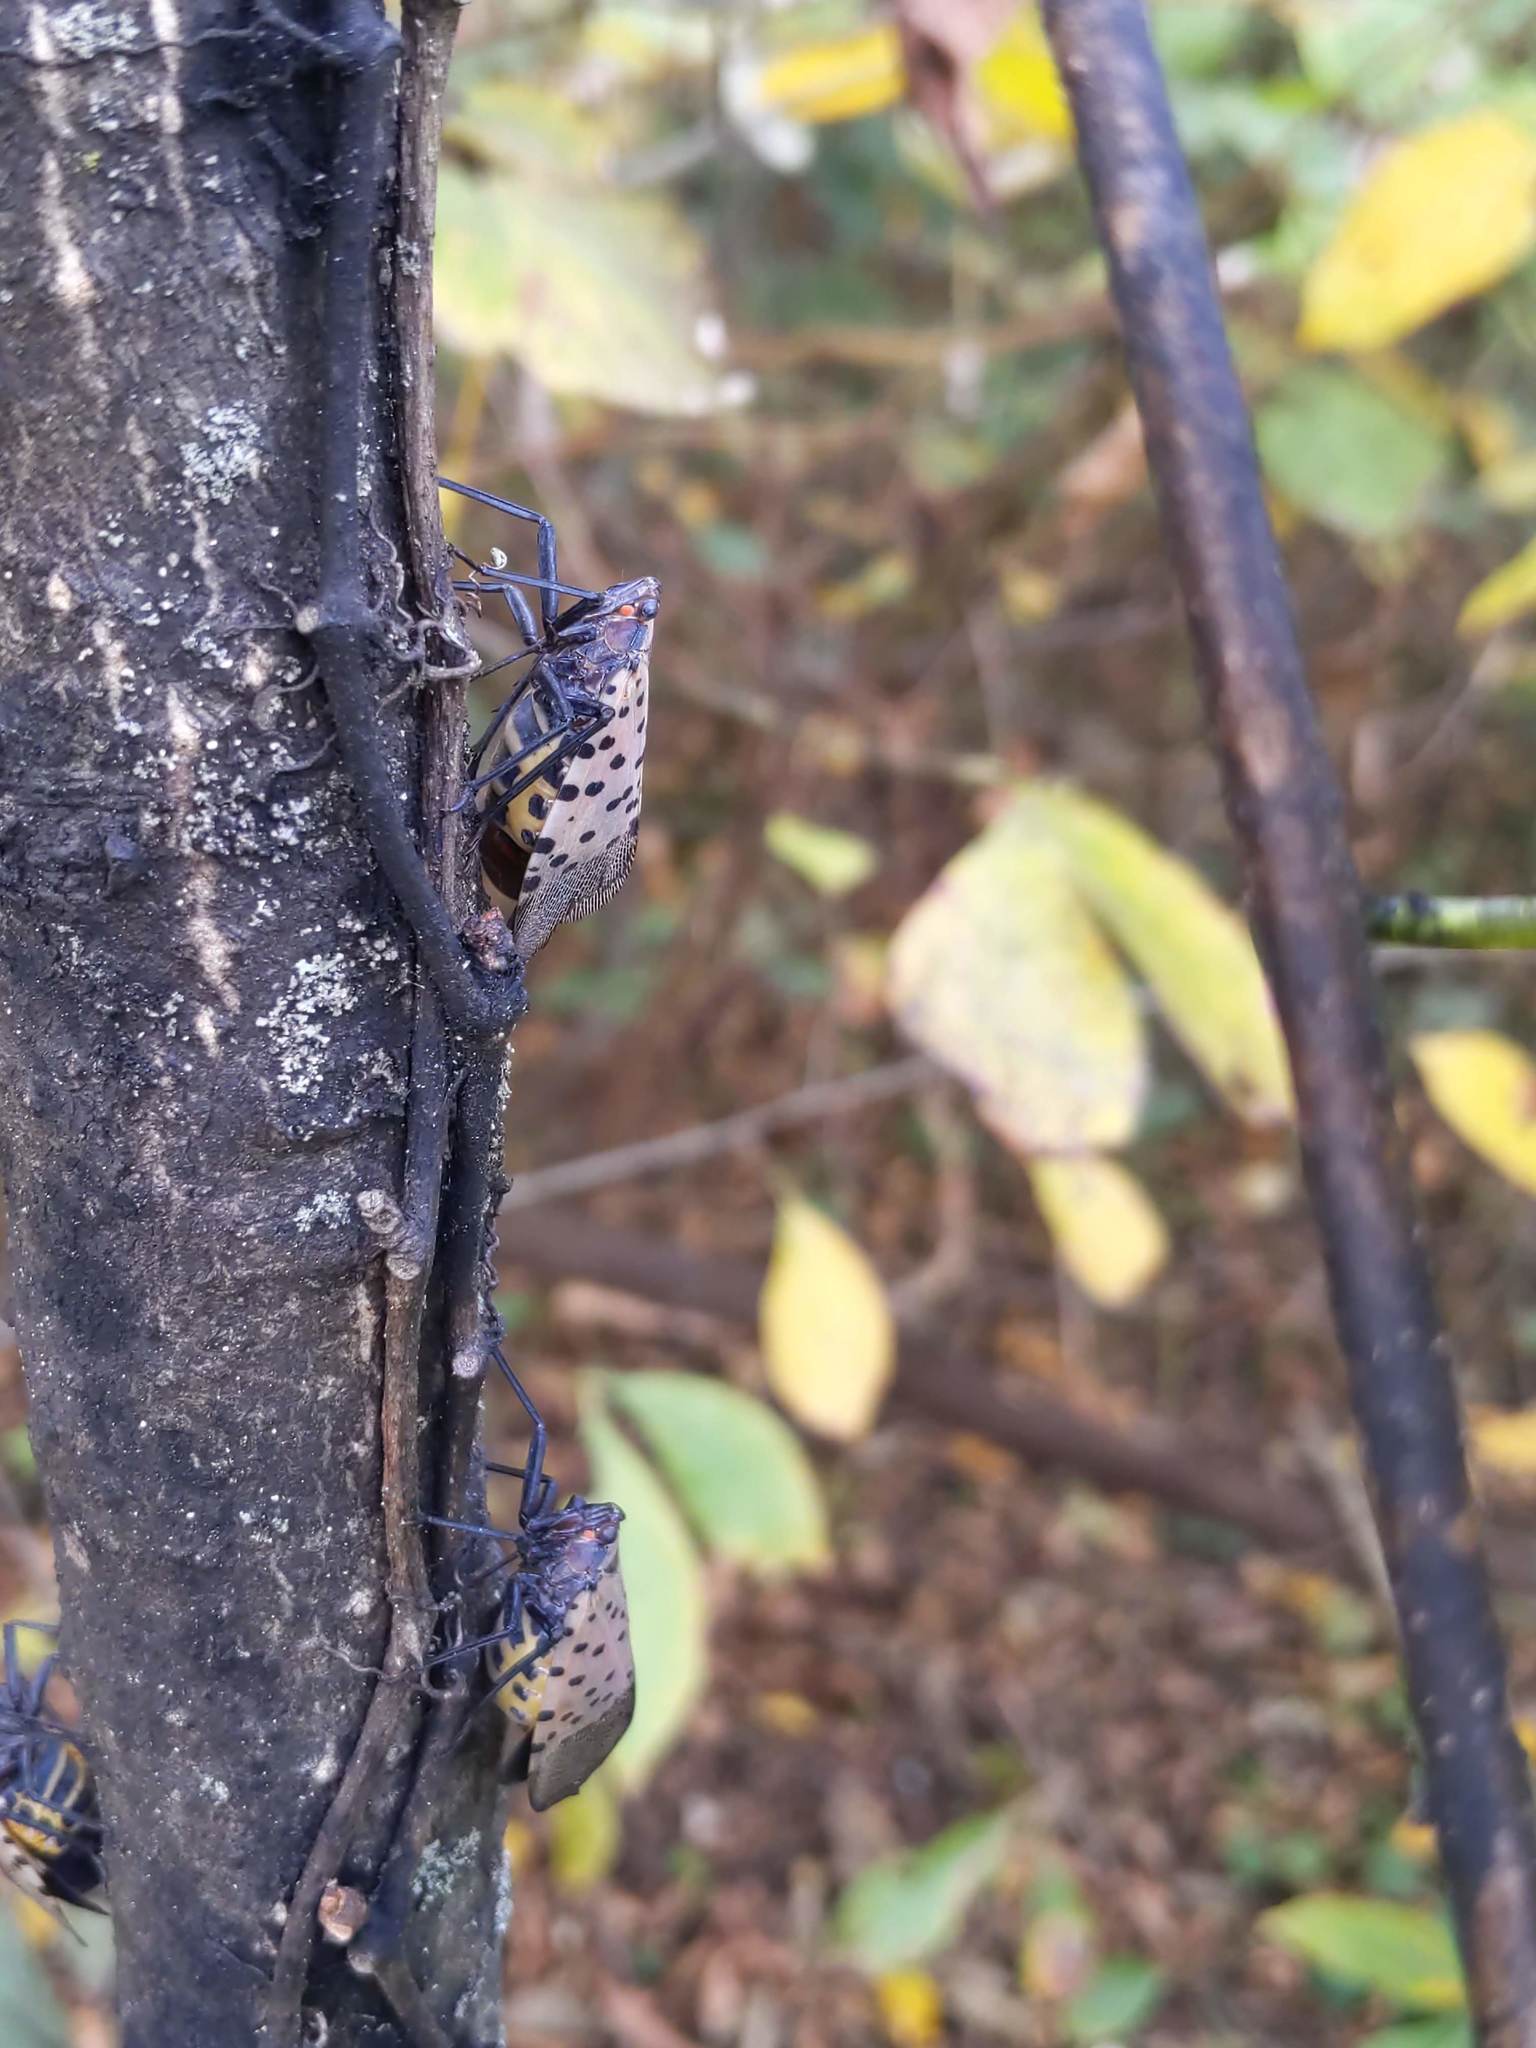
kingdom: Animalia
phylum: Arthropoda
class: Insecta
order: Hemiptera
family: Fulgoridae
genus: Lycorma
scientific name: Lycorma delicatula
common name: Spotted lanternfly
